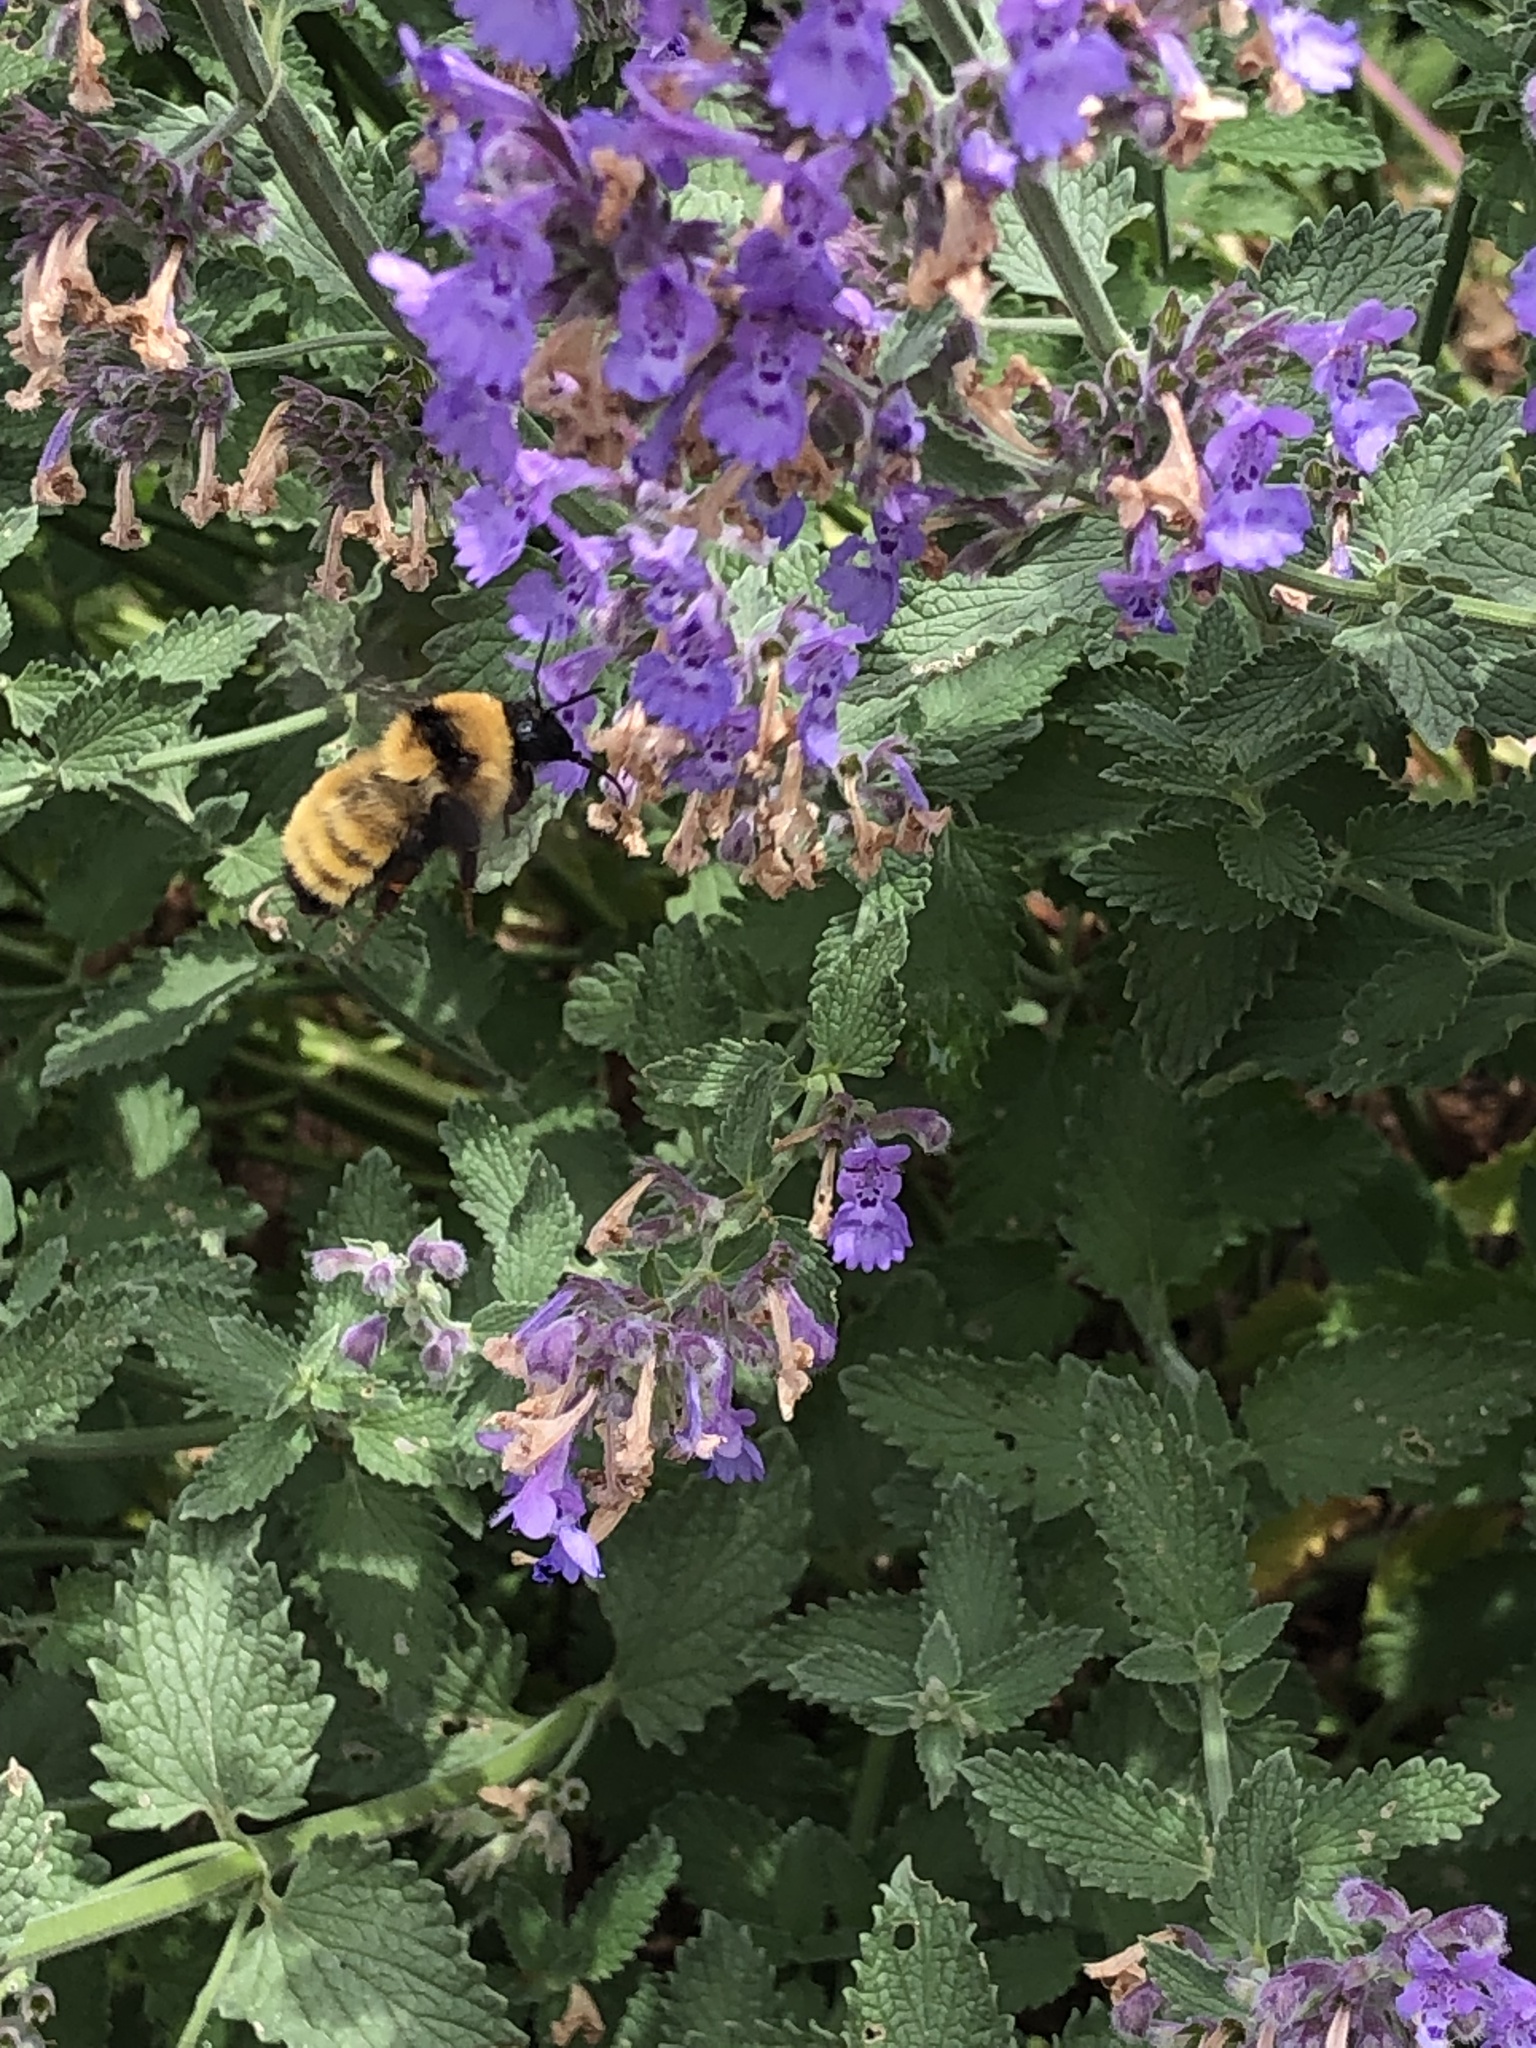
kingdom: Animalia
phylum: Arthropoda
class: Insecta
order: Hymenoptera
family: Apidae
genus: Bombus
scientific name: Bombus fervidus
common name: Yellow bumble bee
